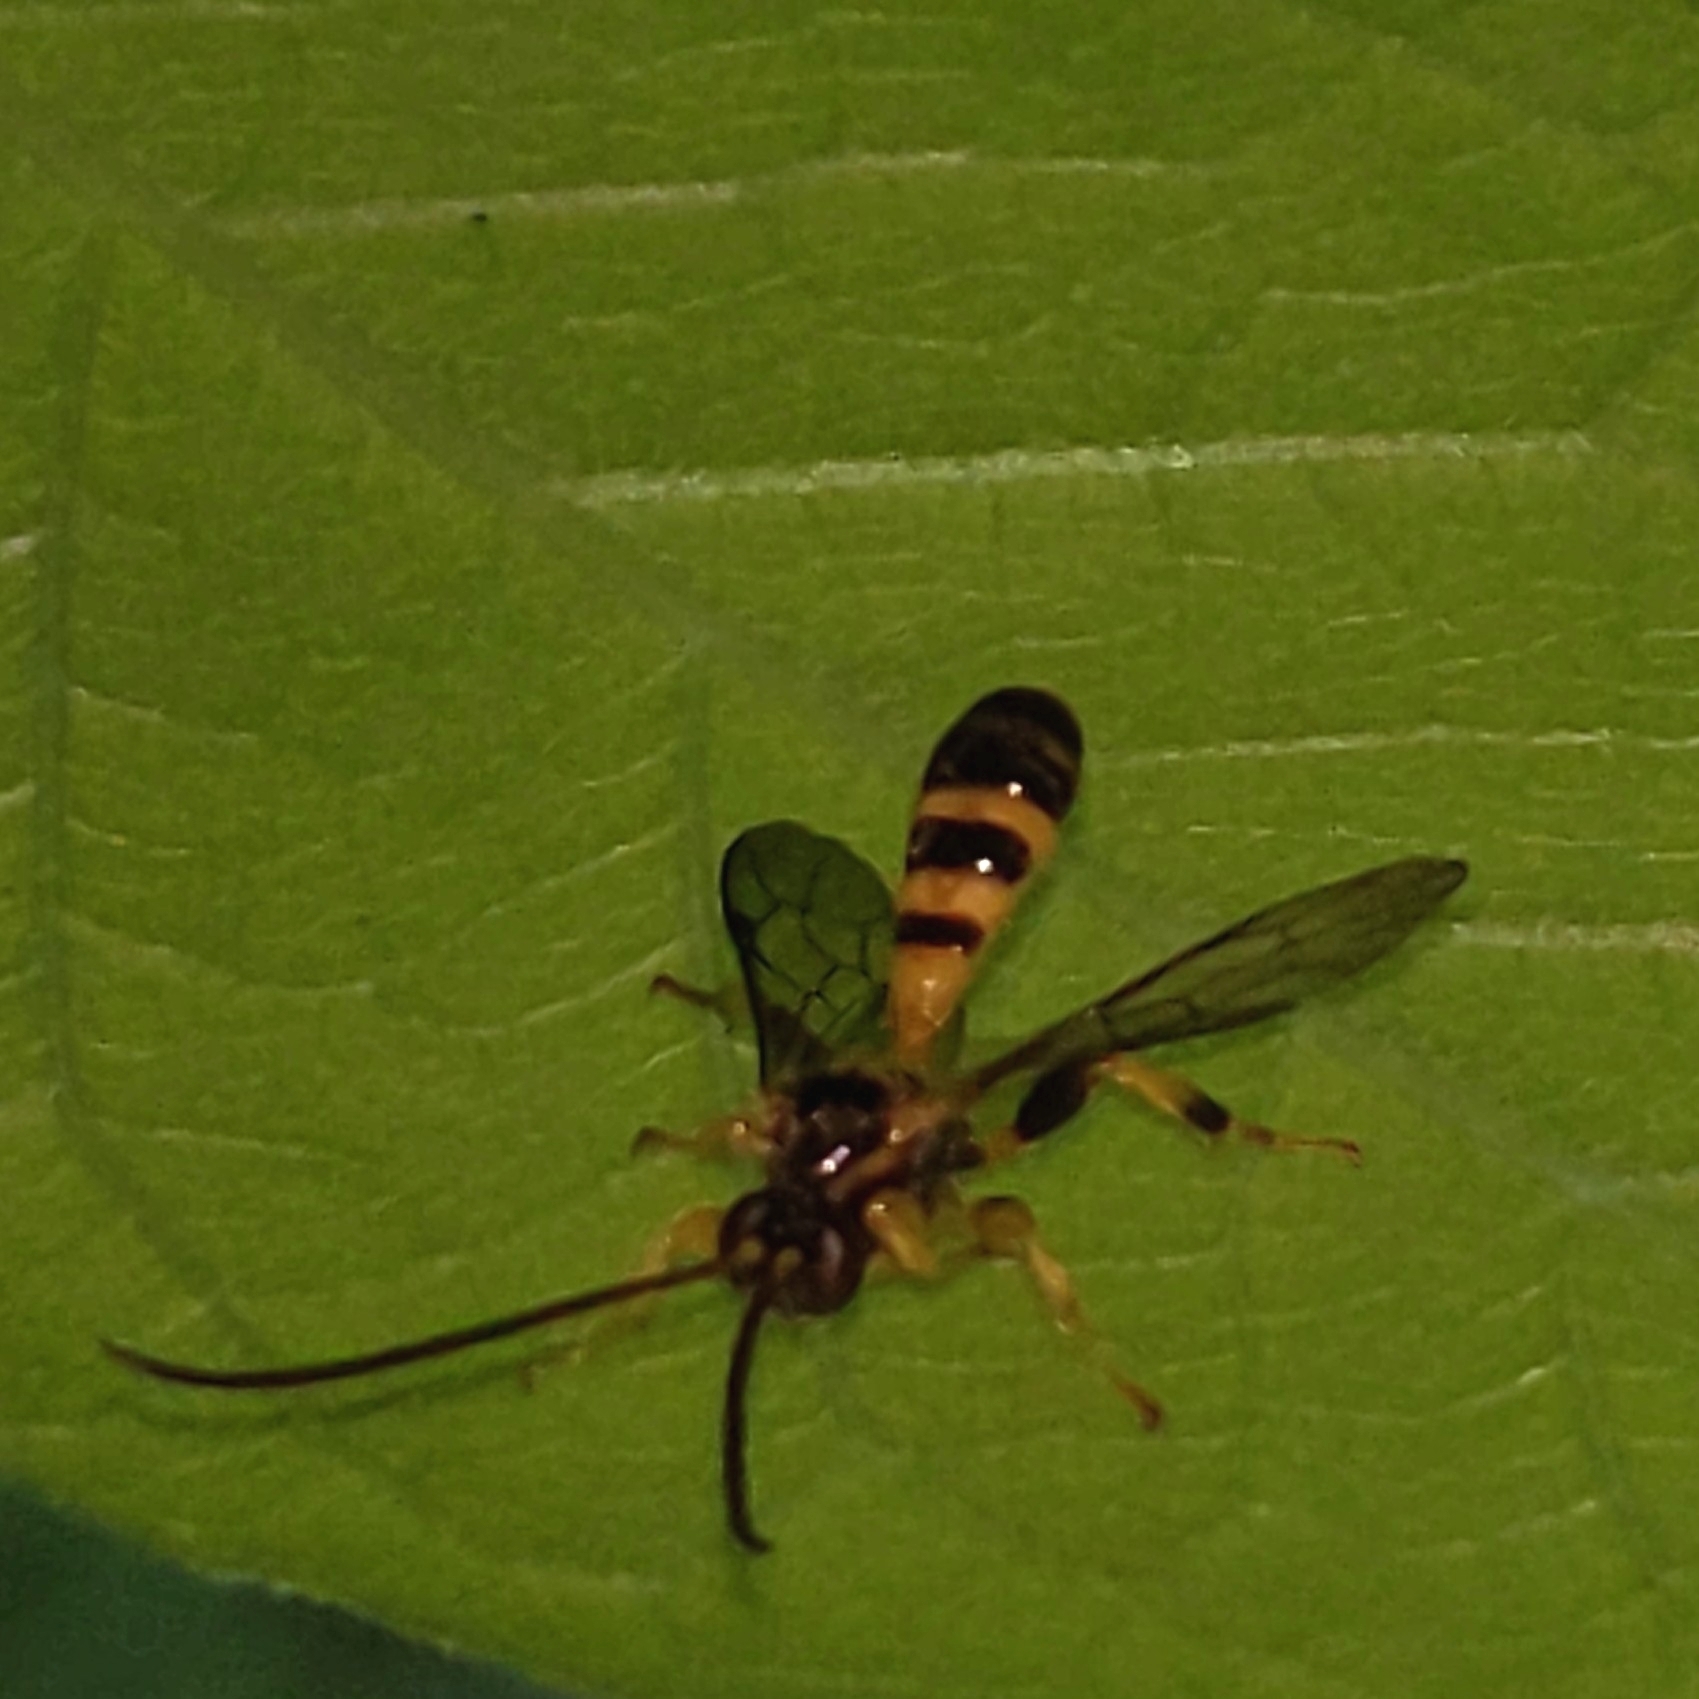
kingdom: Animalia
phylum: Arthropoda
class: Insecta
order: Hymenoptera
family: Ichneumonidae
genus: Colpotrochia
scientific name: Colpotrochia crassipes
